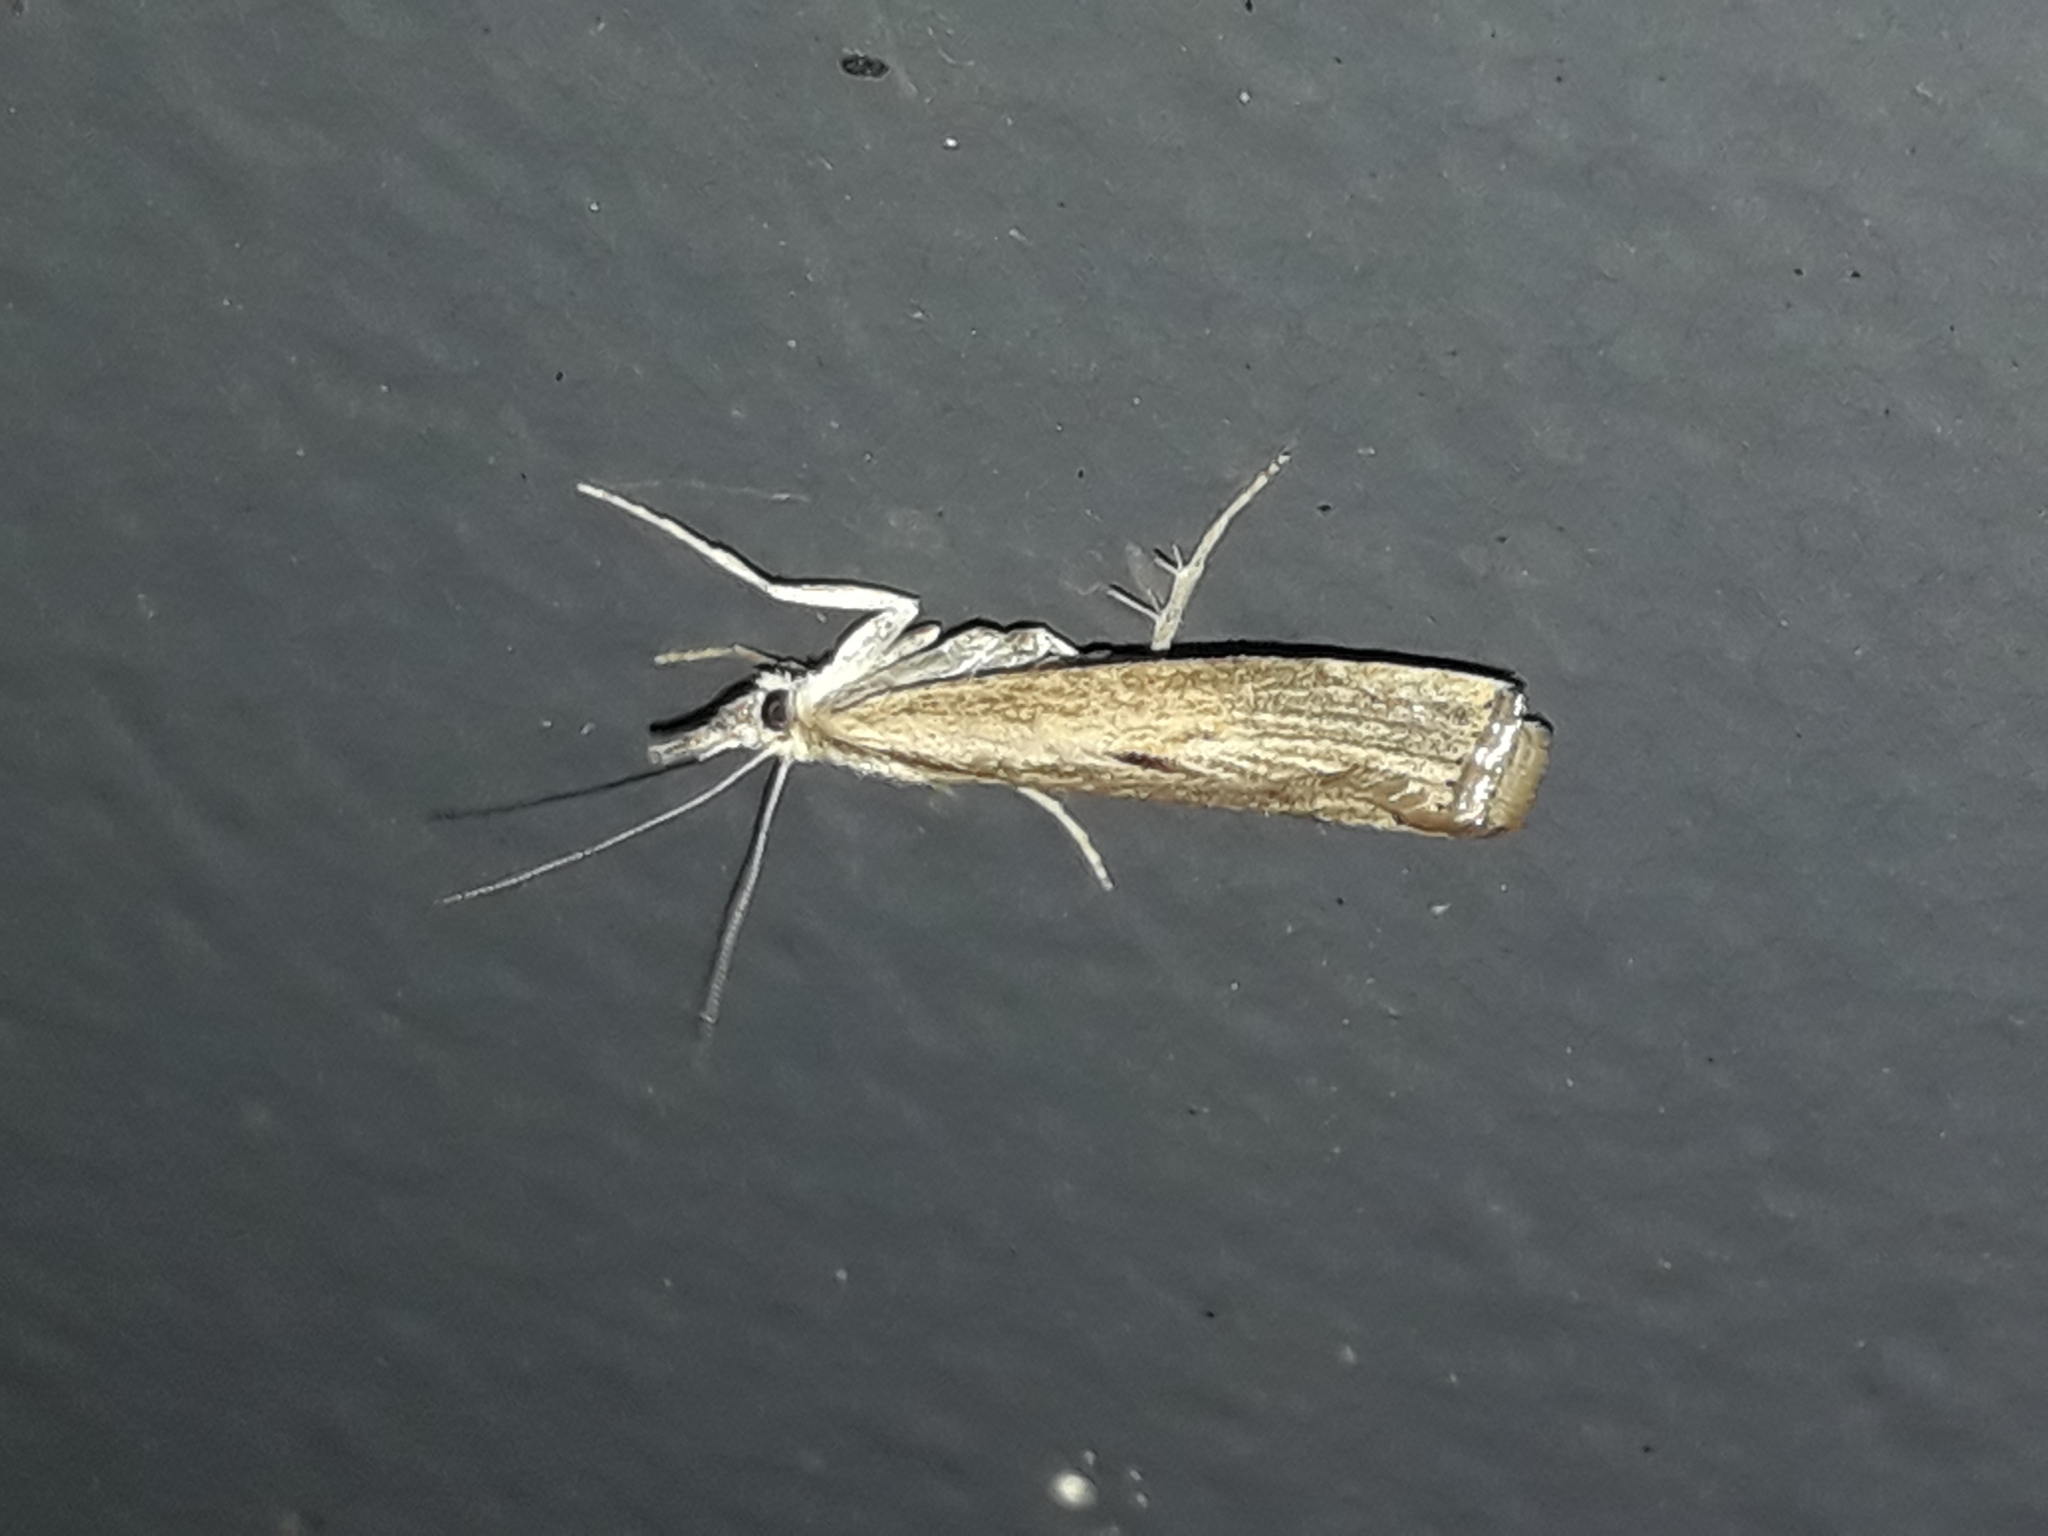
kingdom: Animalia
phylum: Arthropoda
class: Insecta
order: Lepidoptera
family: Crambidae
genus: Agriphila
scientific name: Agriphila geniculea
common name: Elbow-stripe grass-veneer
